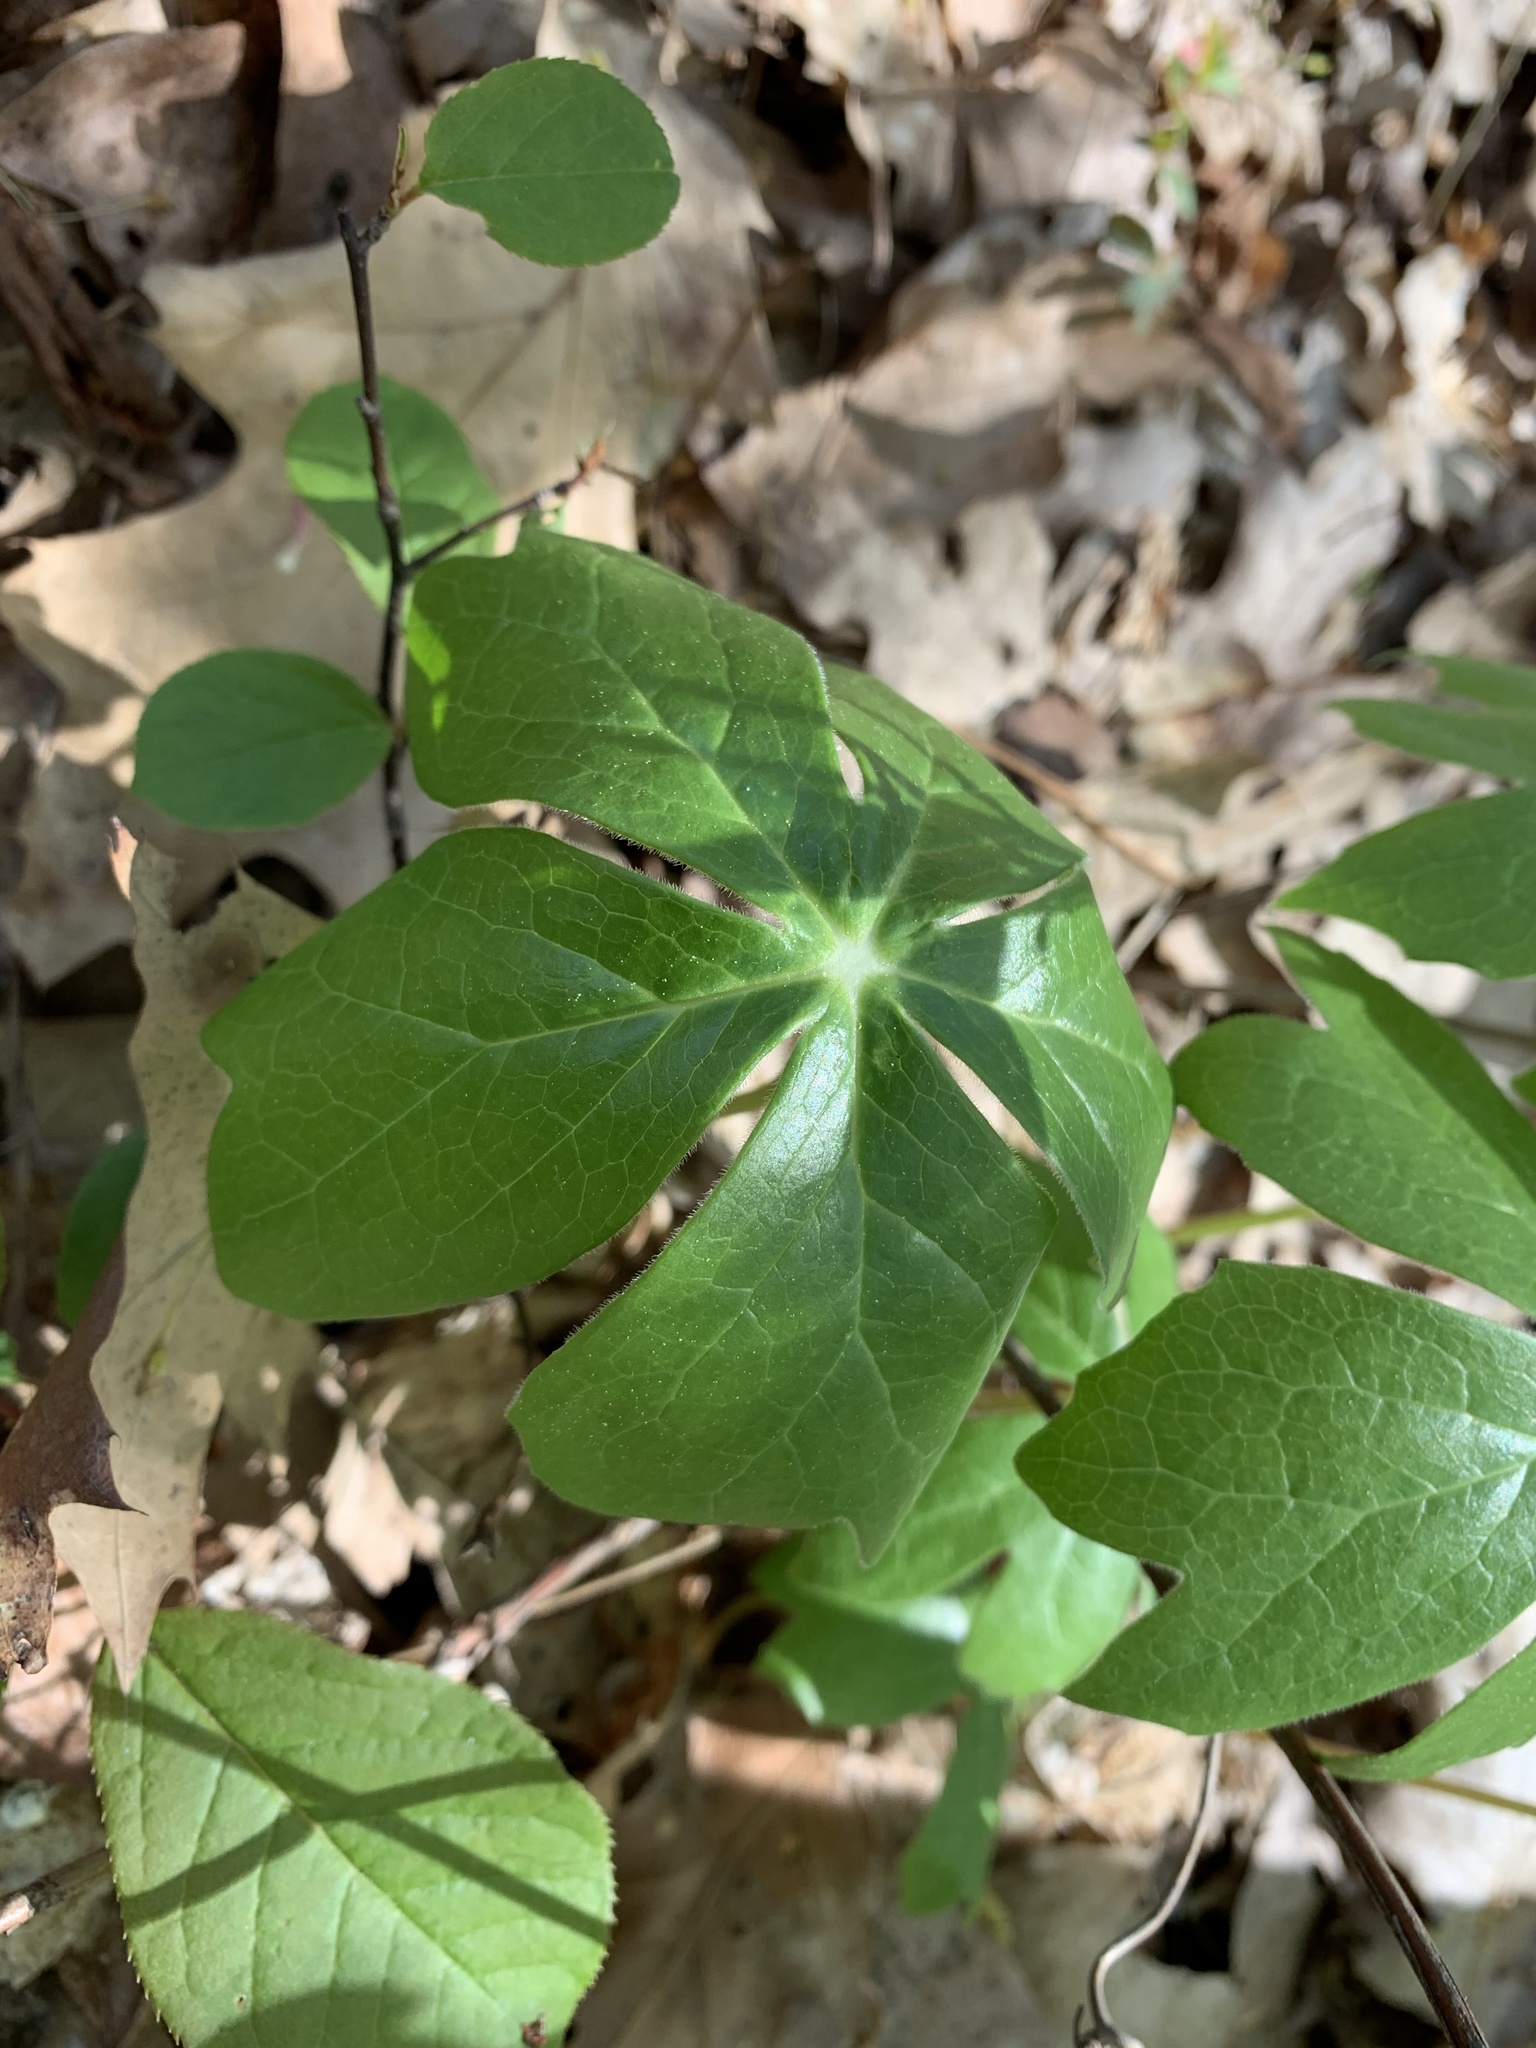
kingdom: Plantae
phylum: Tracheophyta
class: Magnoliopsida
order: Ranunculales
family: Berberidaceae
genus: Podophyllum
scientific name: Podophyllum peltatum
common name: Wild mandrake
